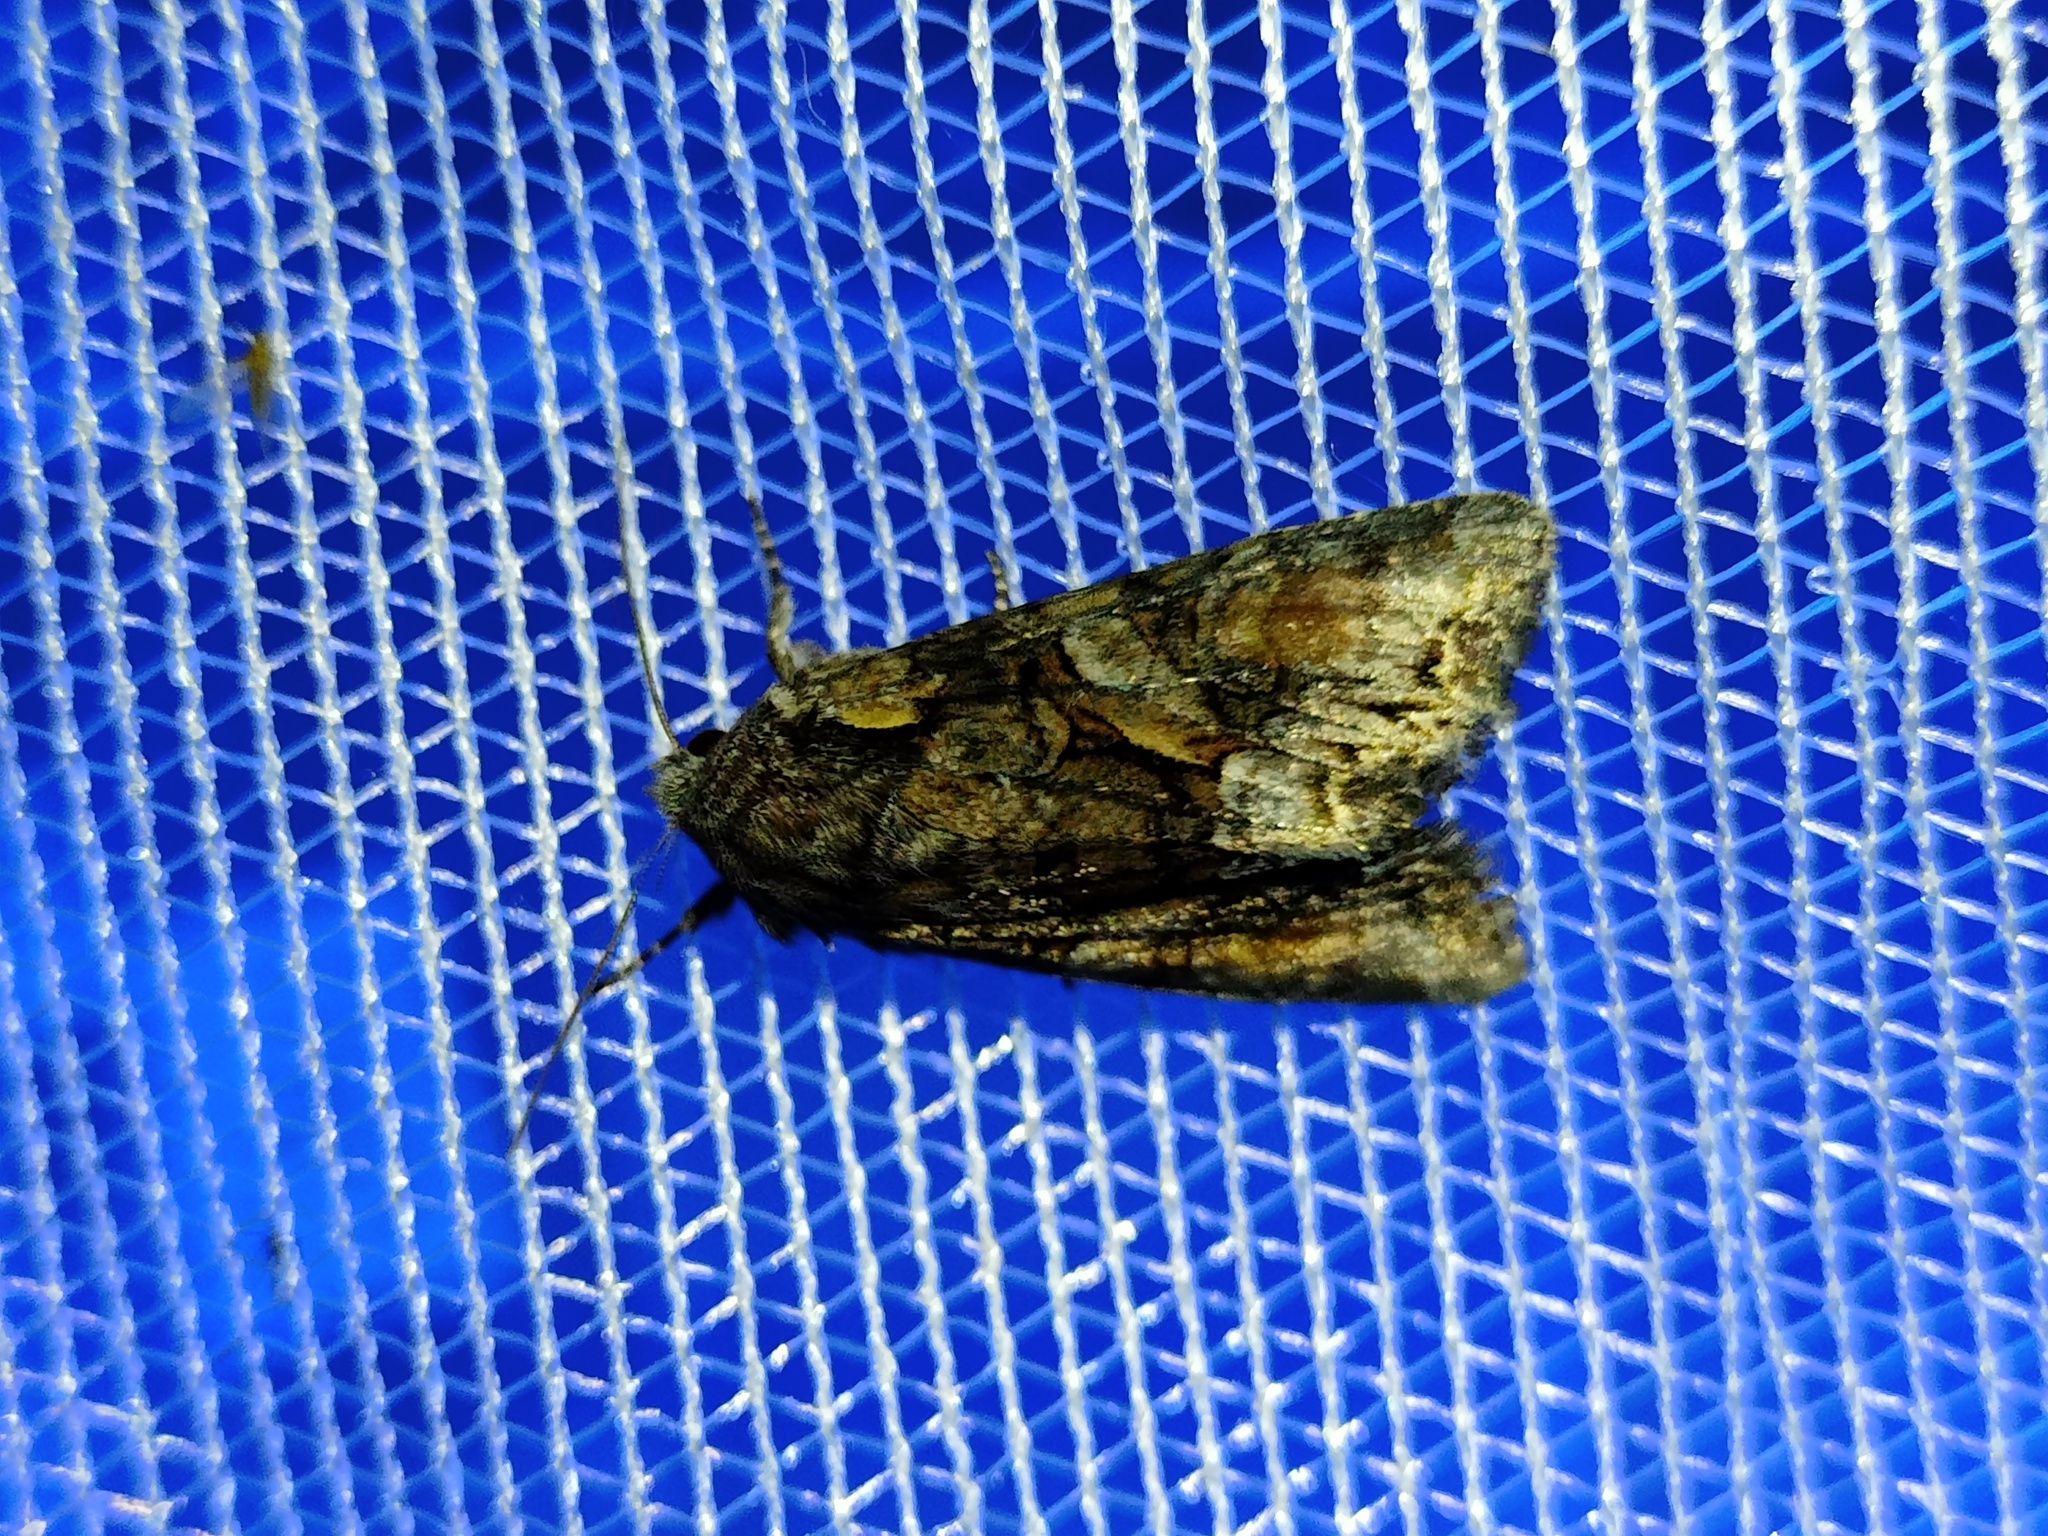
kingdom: Animalia
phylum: Arthropoda
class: Insecta
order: Lepidoptera
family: Noctuidae
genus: Lacanobia
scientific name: Lacanobia contigua
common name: Beautiful brocade
